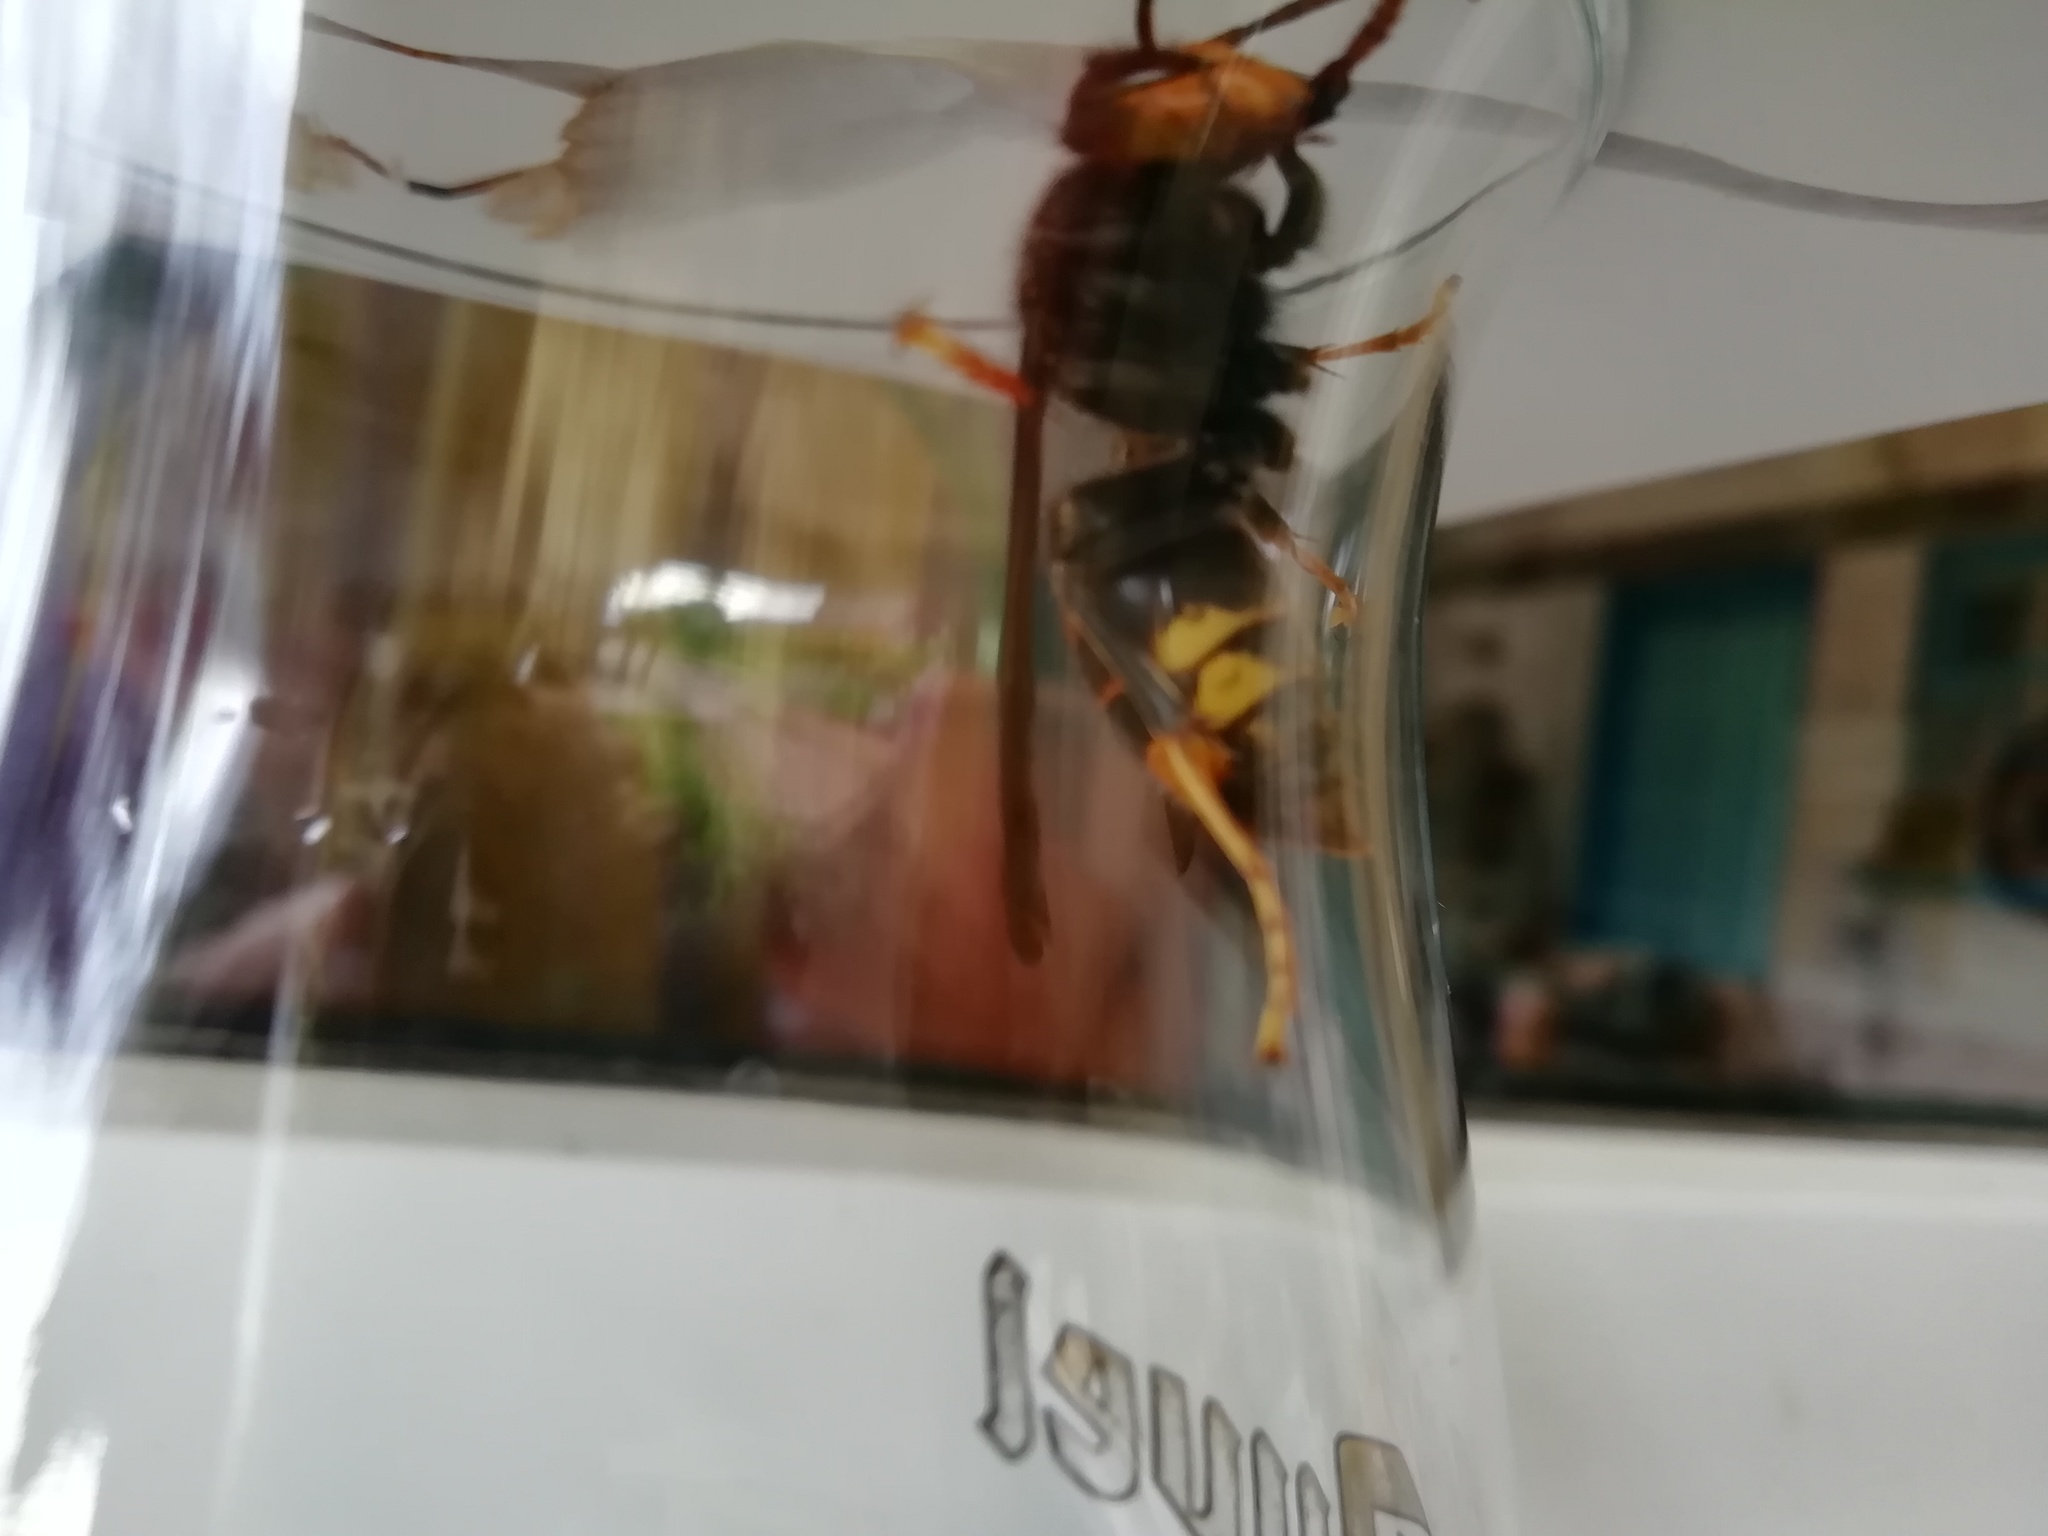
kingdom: Animalia
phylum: Arthropoda
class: Insecta
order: Hymenoptera
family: Vespidae
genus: Vespa
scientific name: Vespa velutina
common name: Asian hornet
